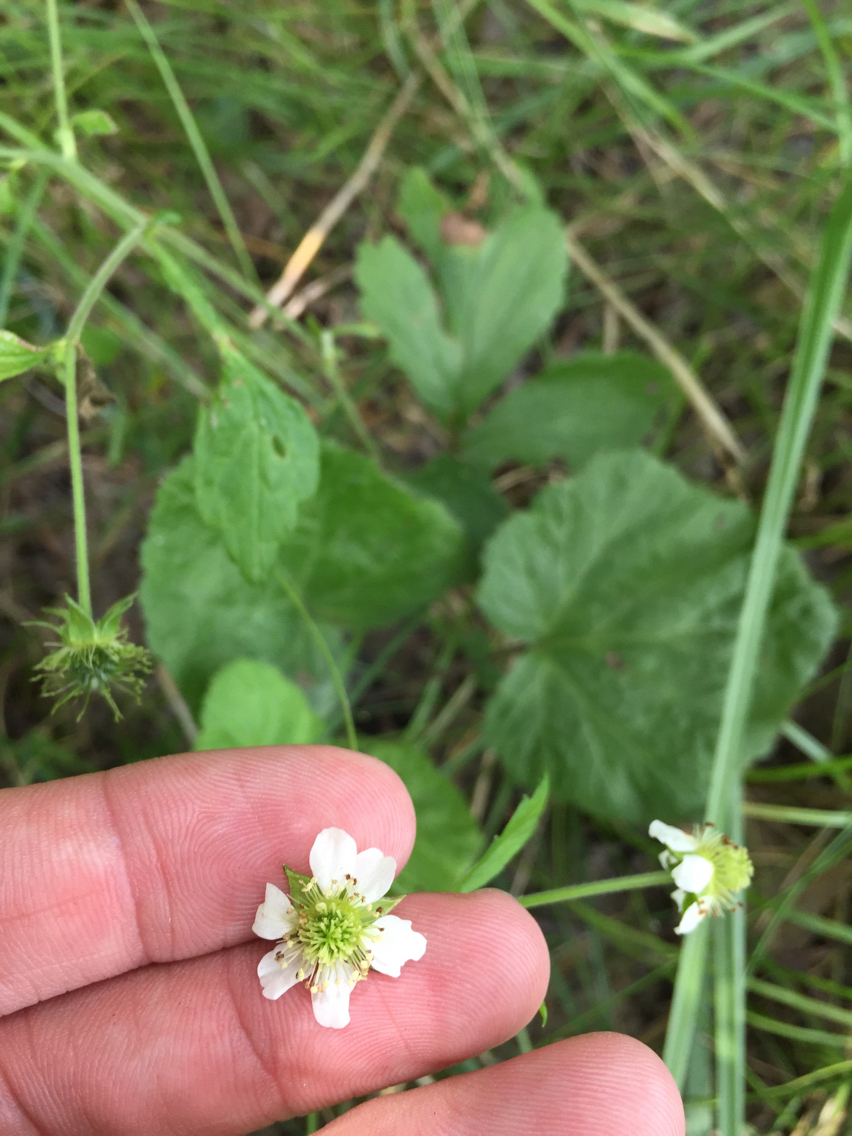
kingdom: Plantae
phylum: Tracheophyta
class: Magnoliopsida
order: Rosales
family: Rosaceae
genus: Geum
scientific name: Geum canadense
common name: White avens
